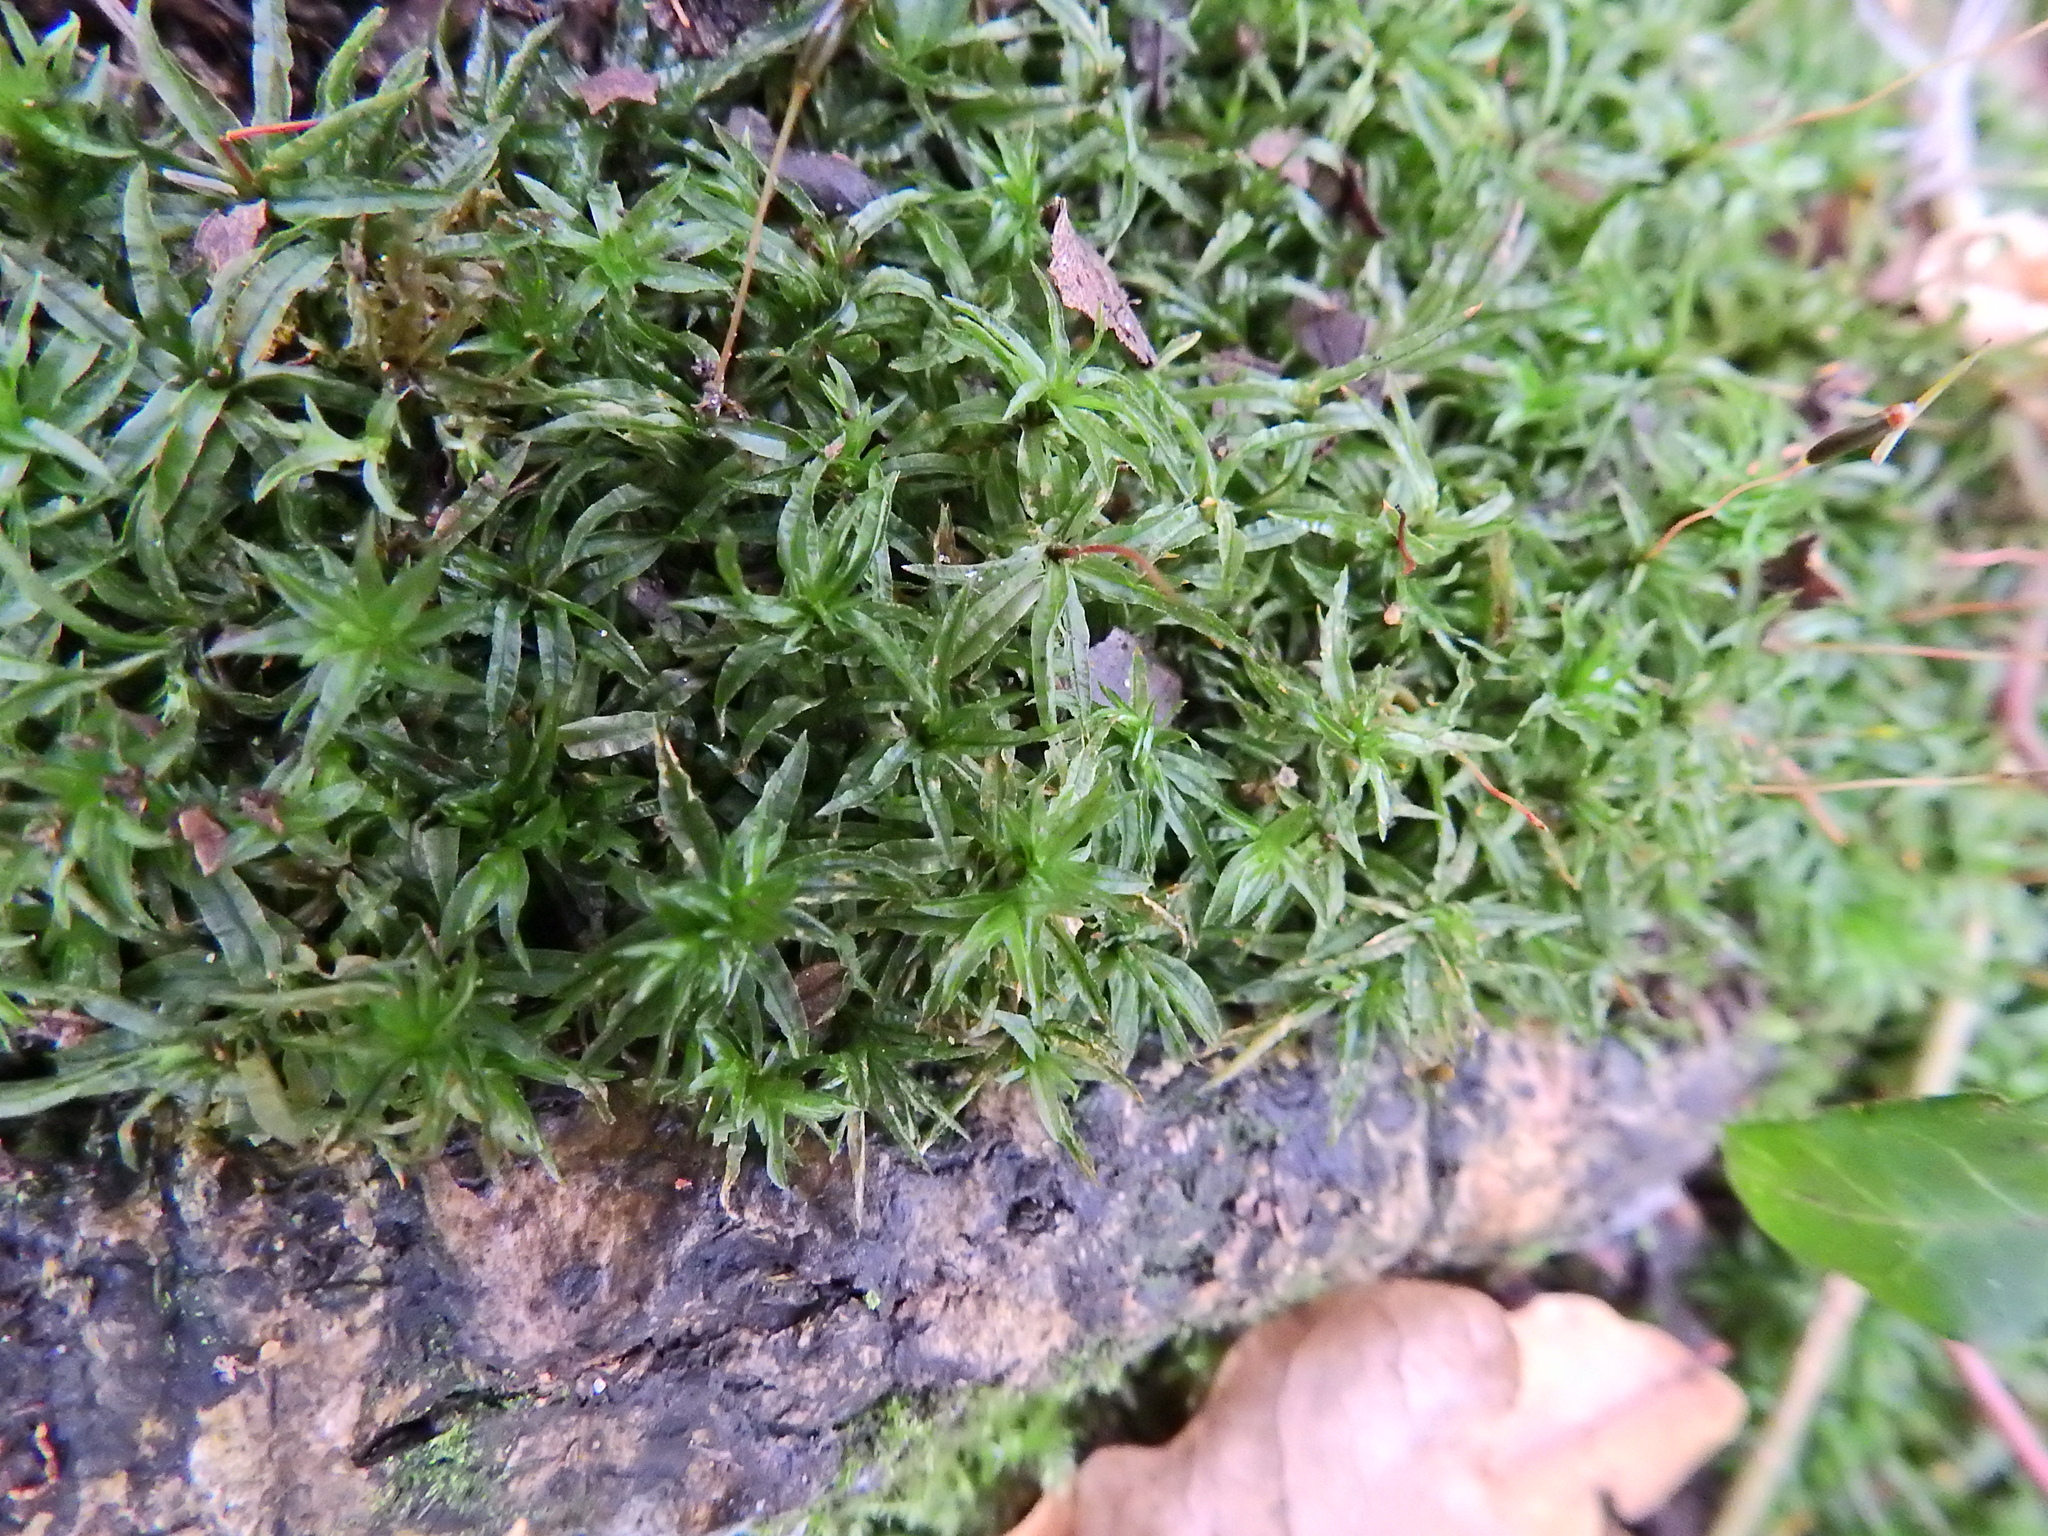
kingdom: Plantae
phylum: Bryophyta
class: Polytrichopsida
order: Polytrichales
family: Polytrichaceae
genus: Atrichum
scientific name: Atrichum undulatum
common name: Common smoothcap
